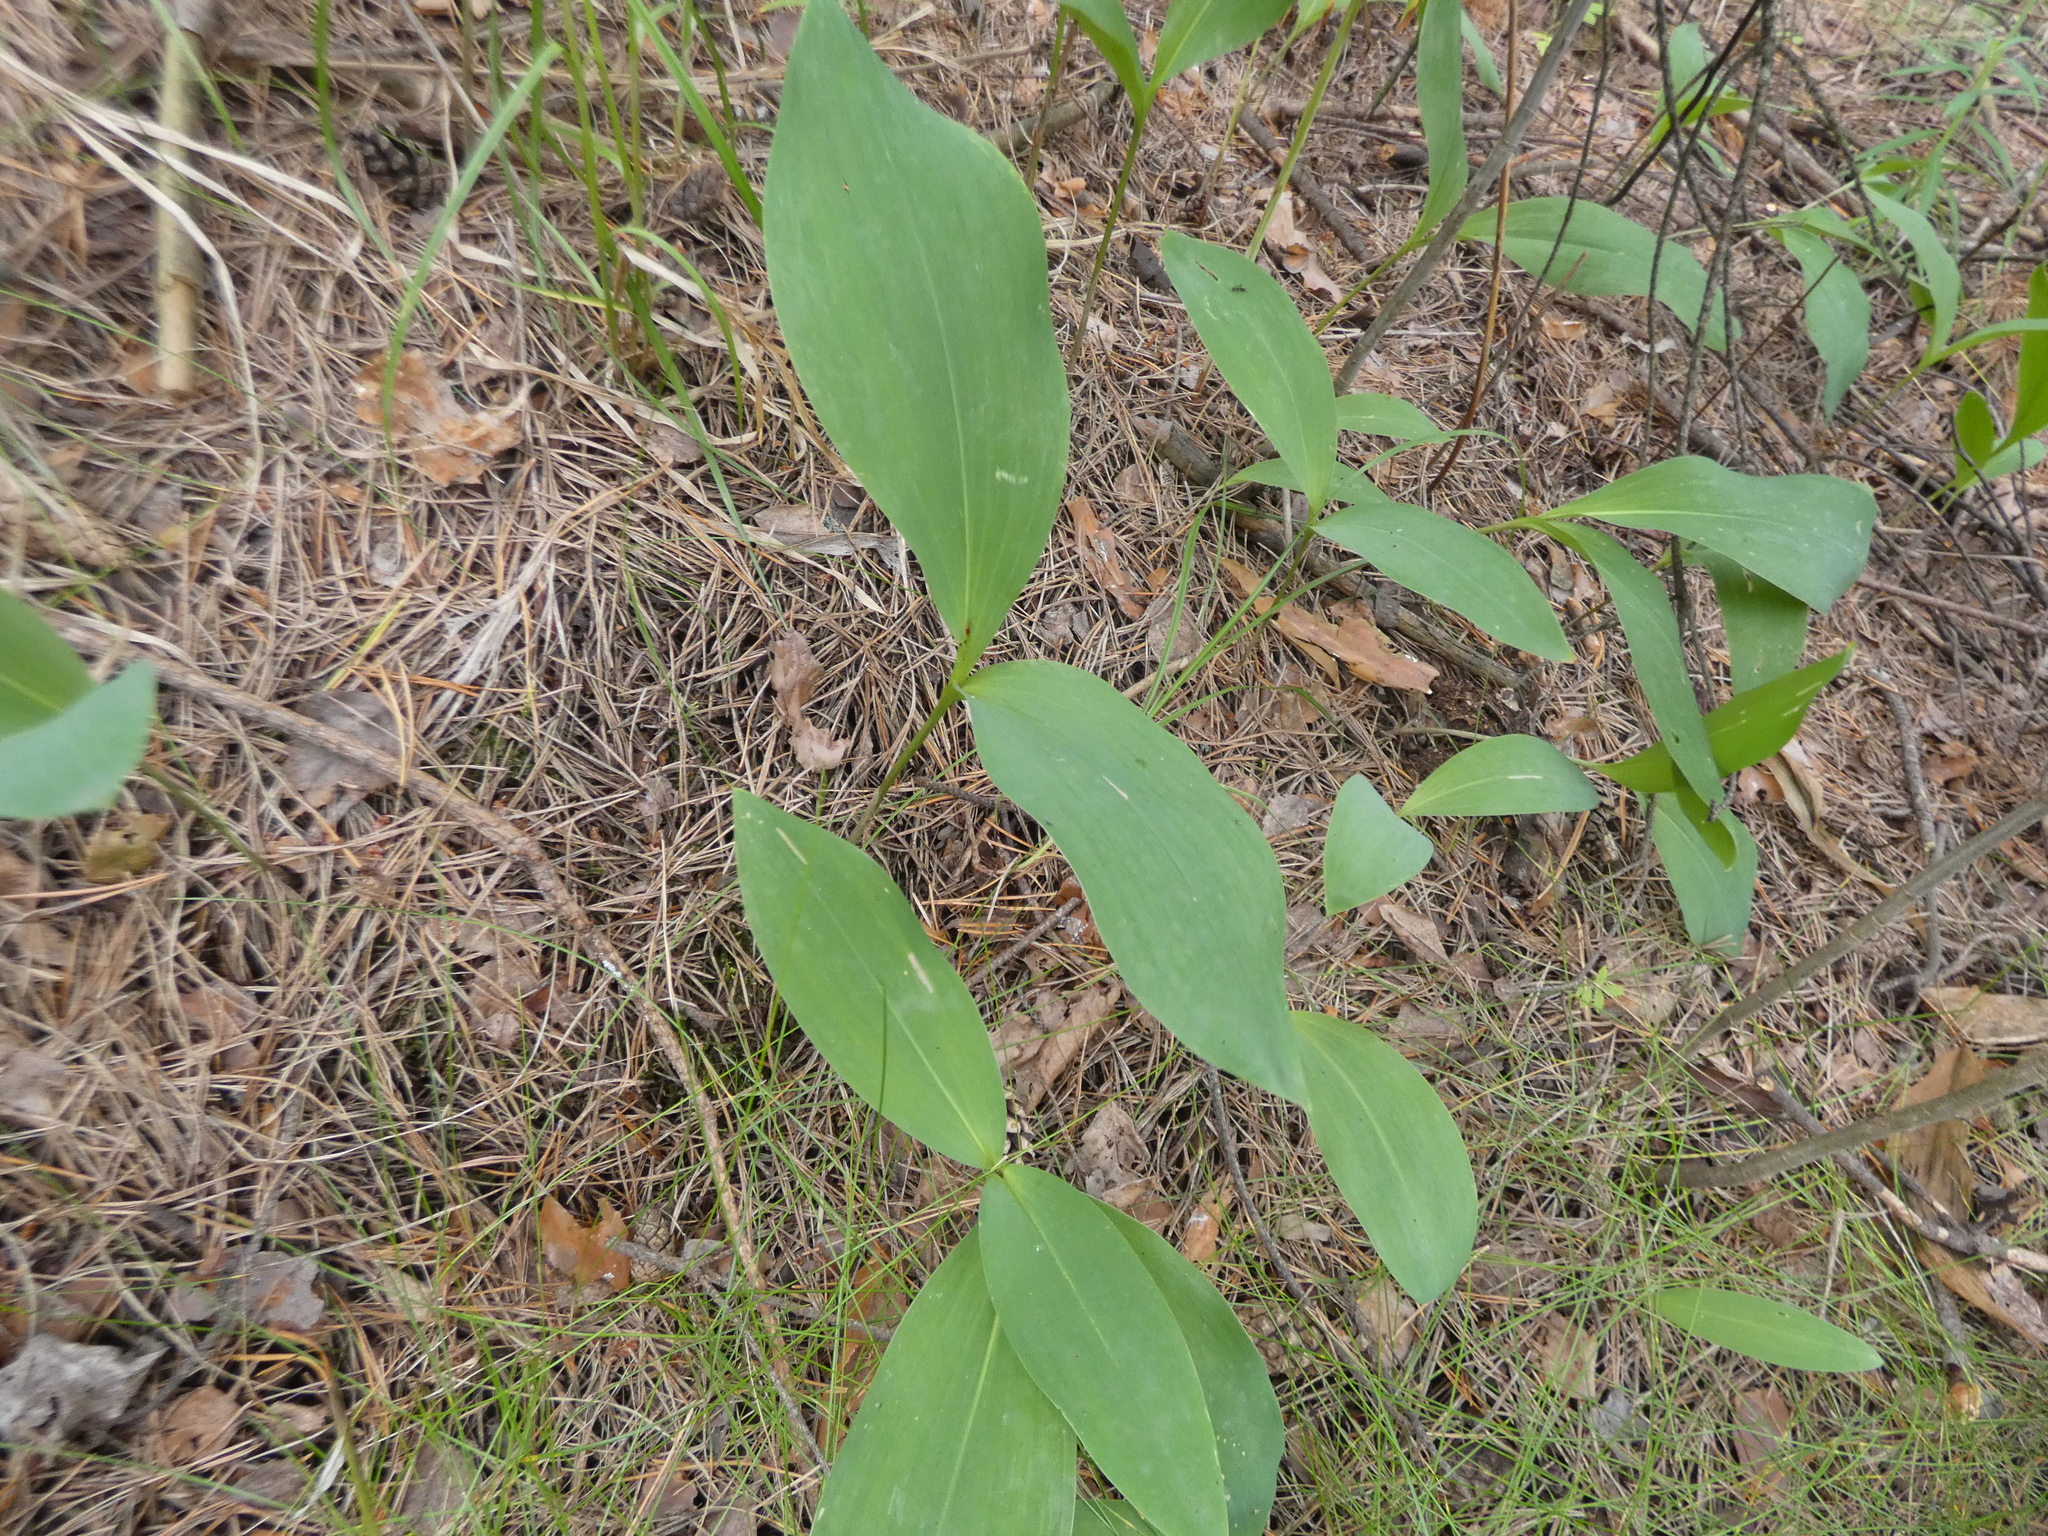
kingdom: Plantae
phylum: Tracheophyta
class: Liliopsida
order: Asparagales
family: Asparagaceae
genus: Convallaria
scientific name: Convallaria majalis
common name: Lily-of-the-valley
